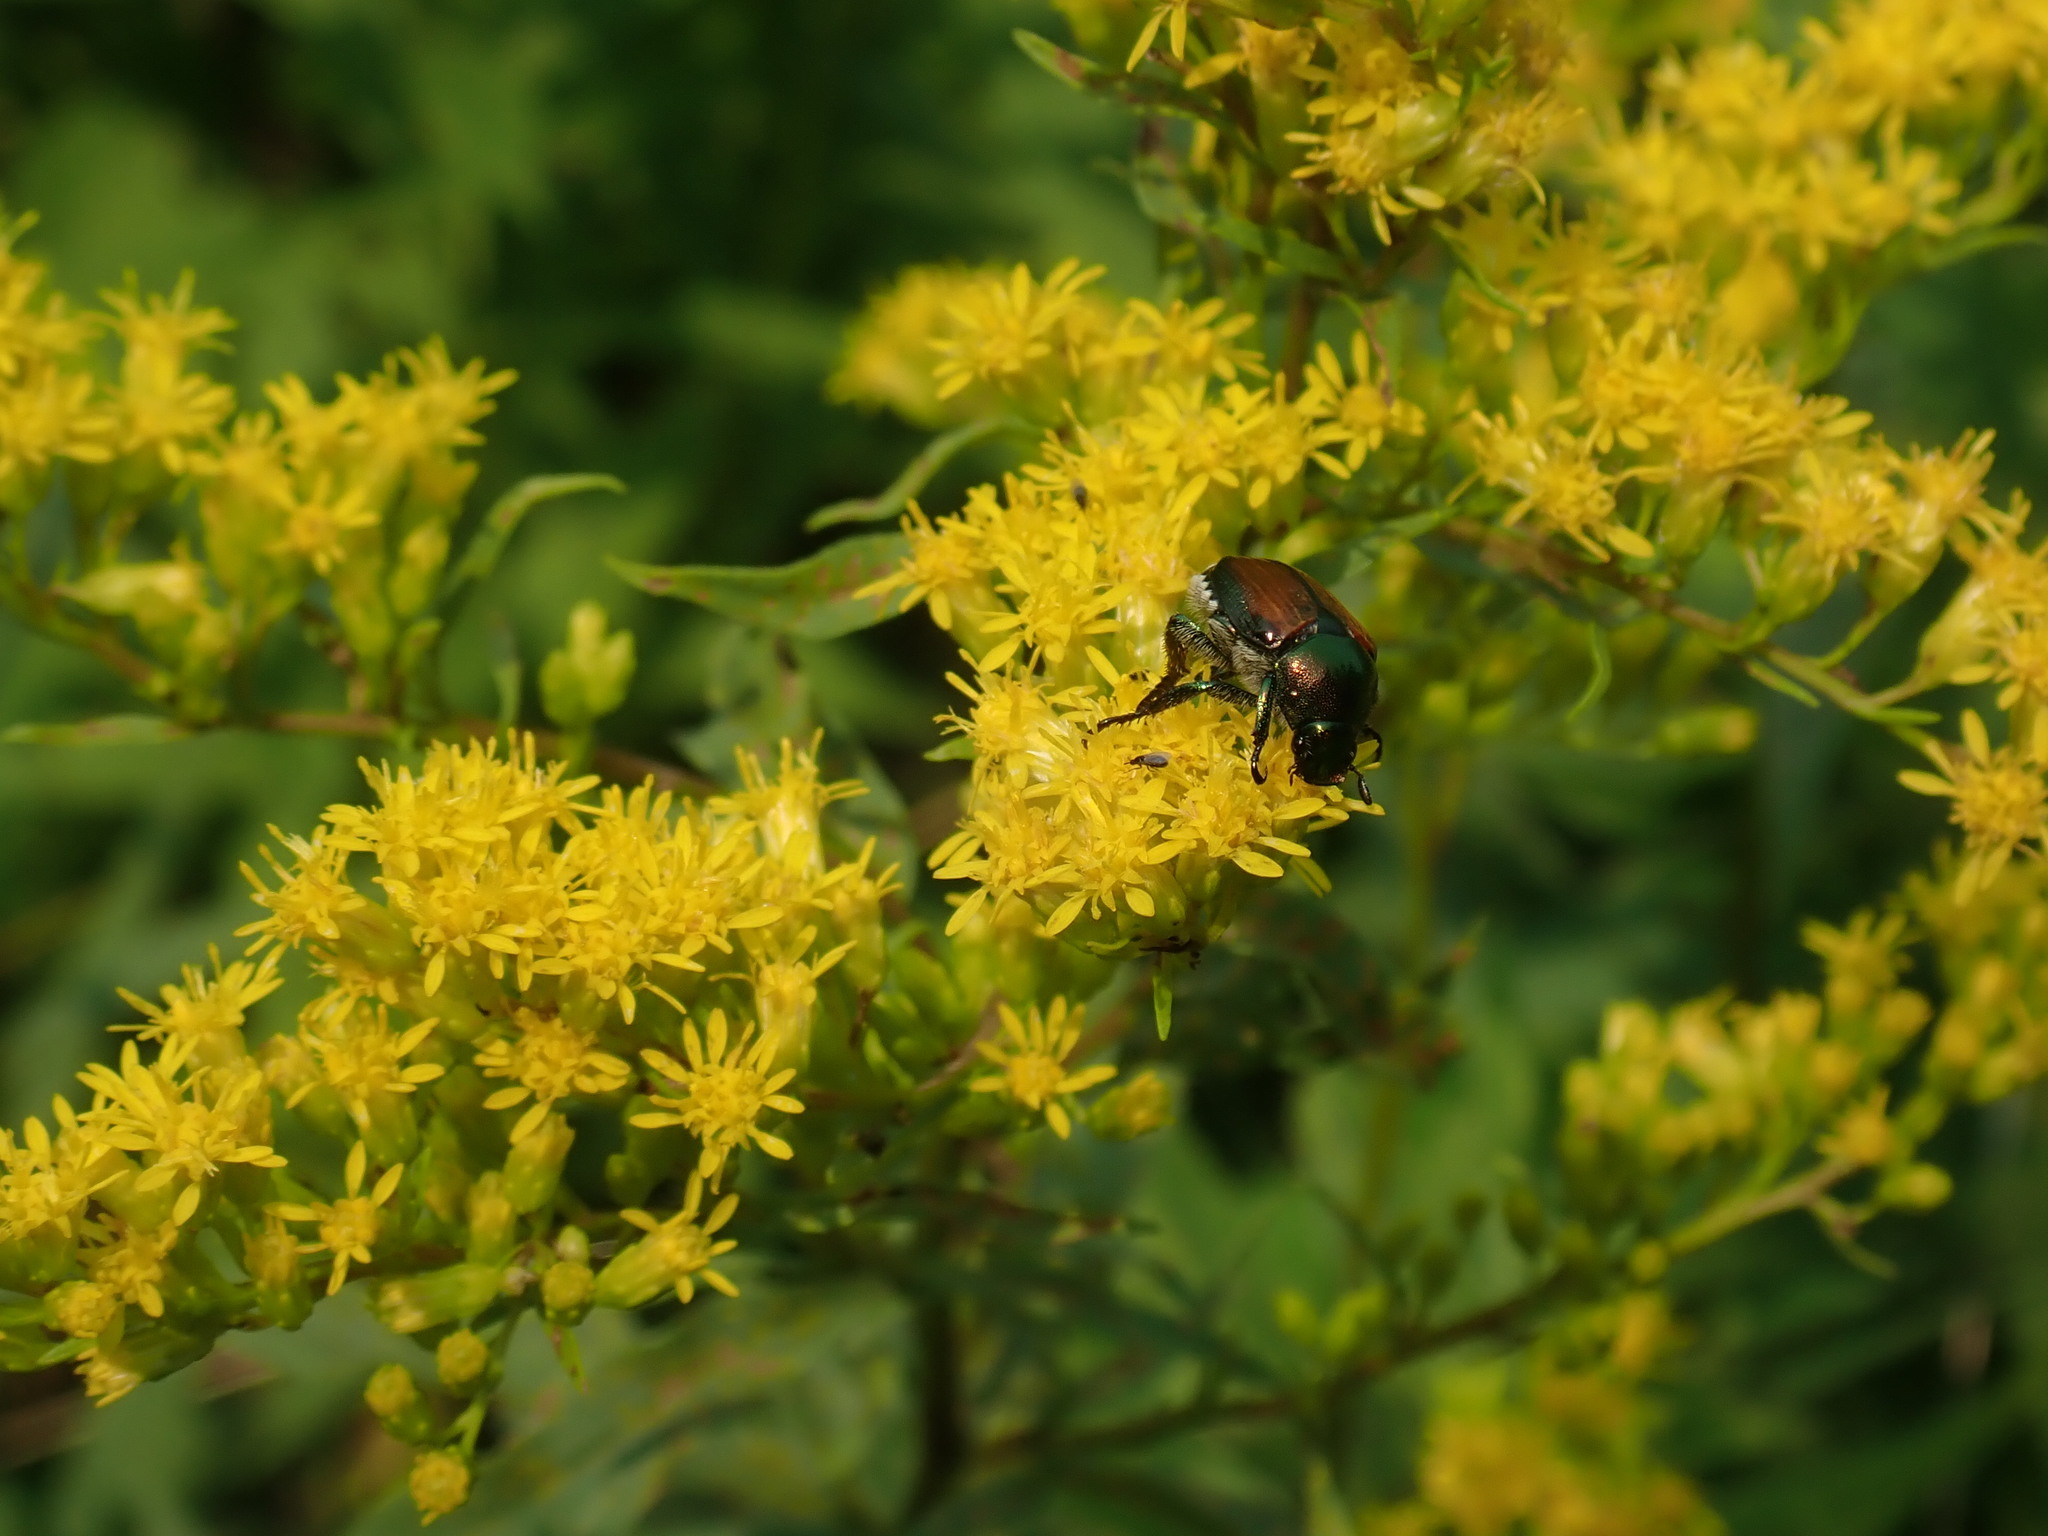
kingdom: Animalia
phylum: Arthropoda
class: Insecta
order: Coleoptera
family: Scarabaeidae
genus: Popillia
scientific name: Popillia japonica
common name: Japanese beetle
